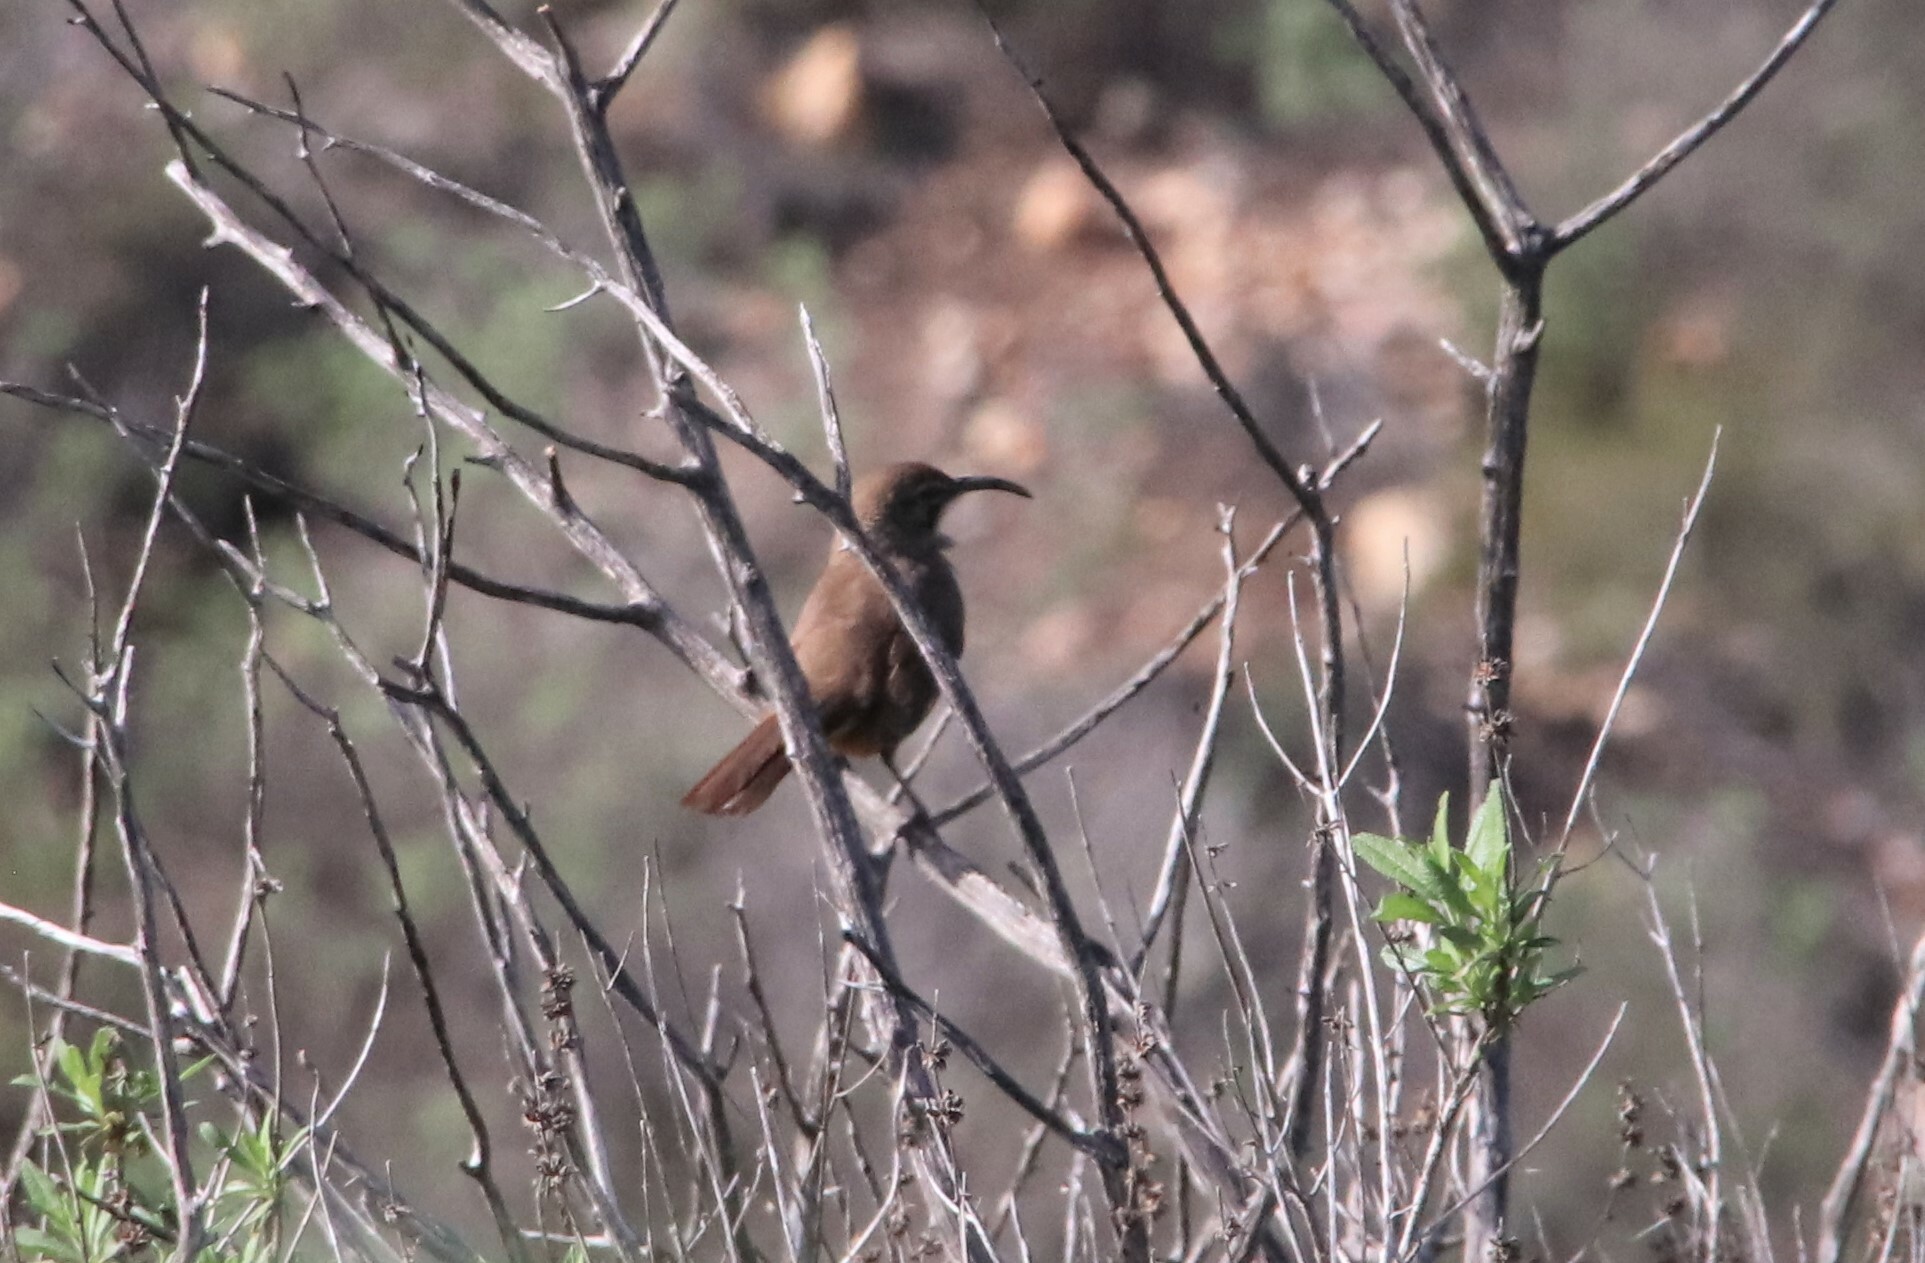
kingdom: Animalia
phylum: Chordata
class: Aves
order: Passeriformes
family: Mimidae
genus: Toxostoma
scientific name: Toxostoma redivivum
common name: California thrasher
